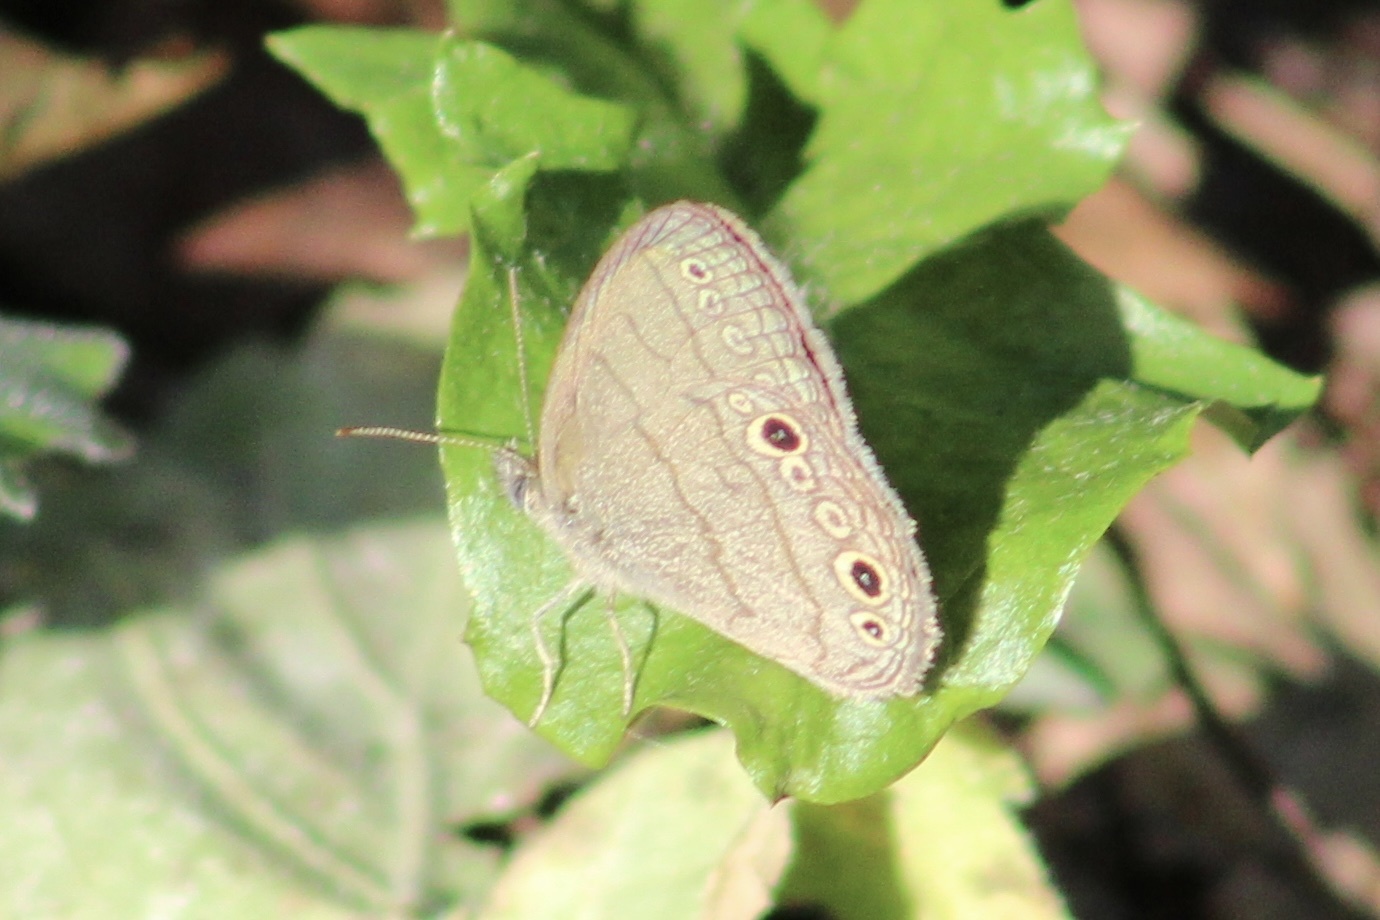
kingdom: Animalia
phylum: Arthropoda
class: Insecta
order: Lepidoptera
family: Nymphalidae
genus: Hermeuptychia
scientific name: Hermeuptychia hermes
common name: Hermes satyr
